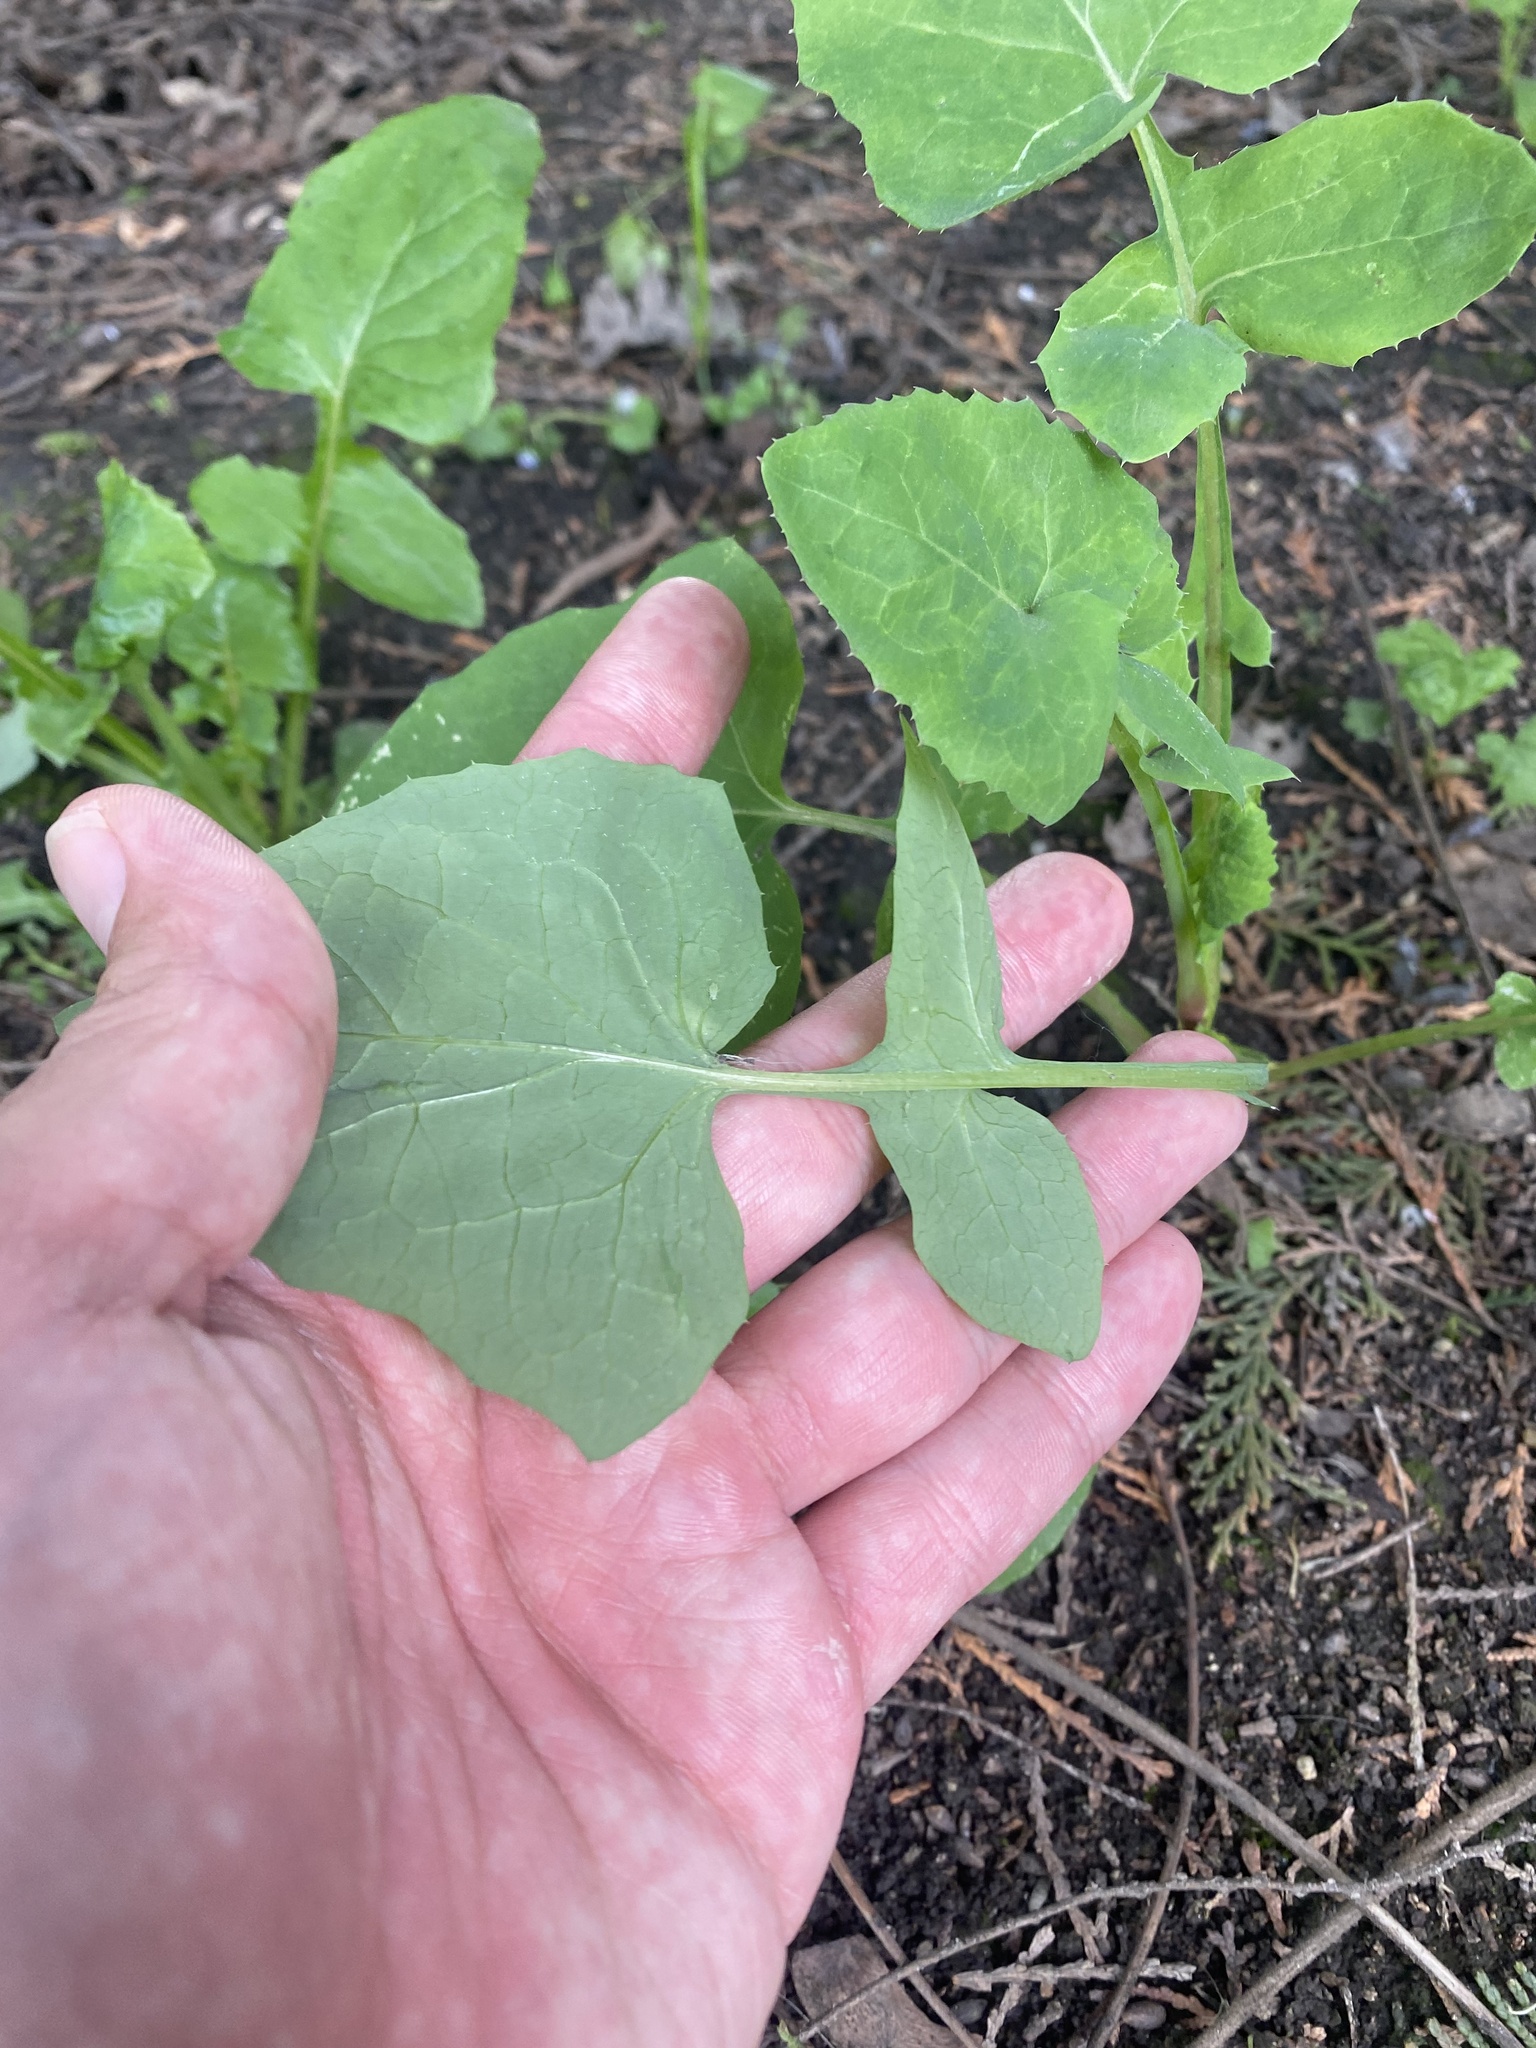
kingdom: Plantae
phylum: Tracheophyta
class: Magnoliopsida
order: Asterales
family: Asteraceae
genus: Sonchus
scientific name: Sonchus oleraceus
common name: Common sowthistle
